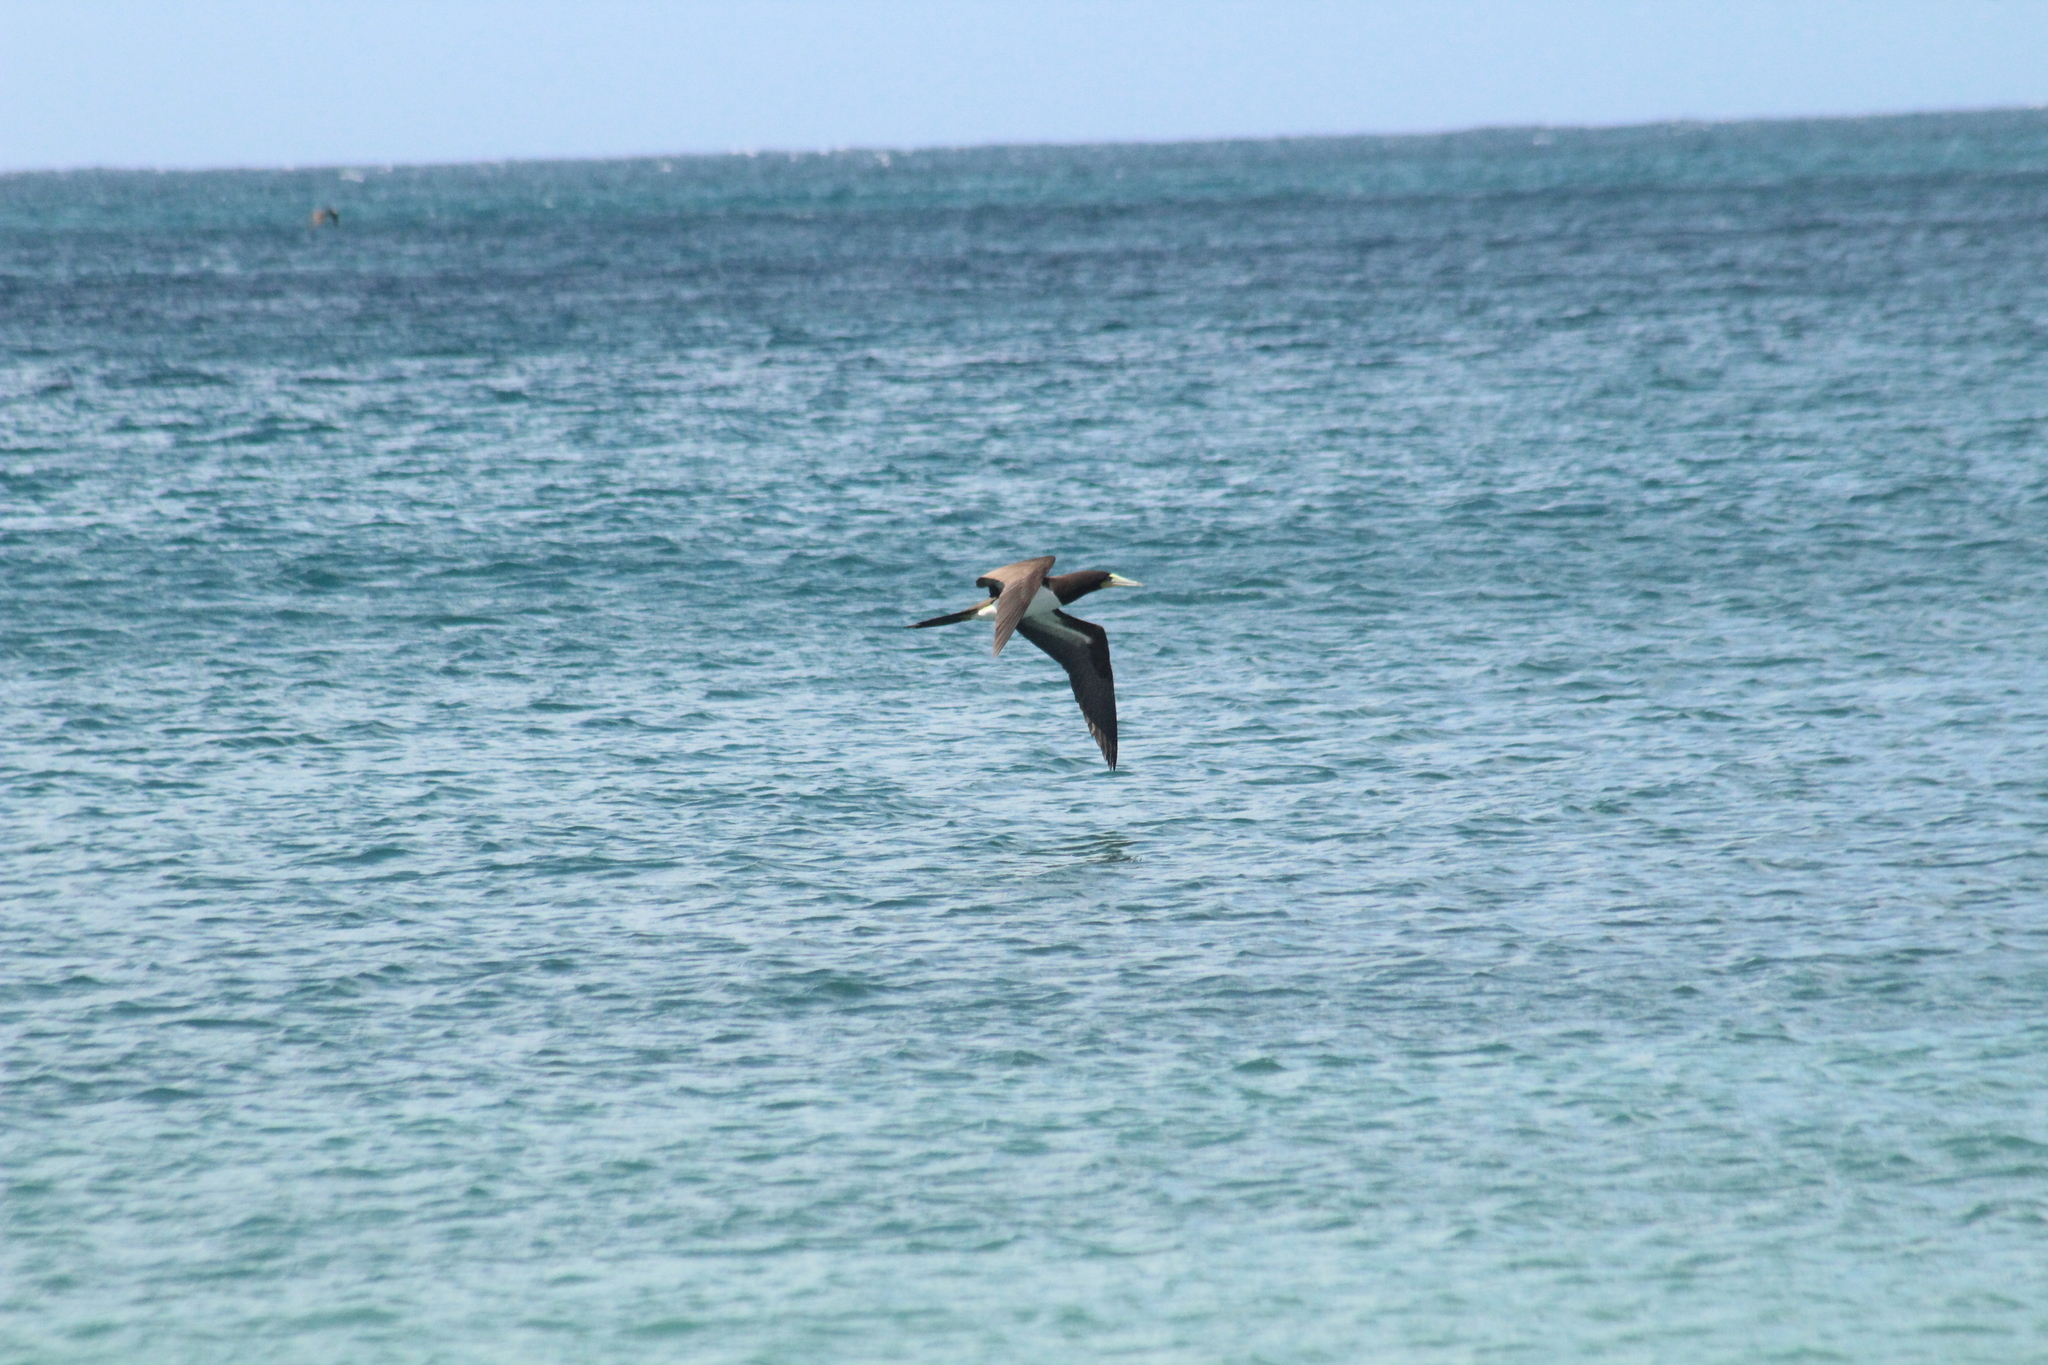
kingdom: Animalia
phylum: Chordata
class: Aves
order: Suliformes
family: Sulidae
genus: Sula
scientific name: Sula leucogaster
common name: Brown booby
